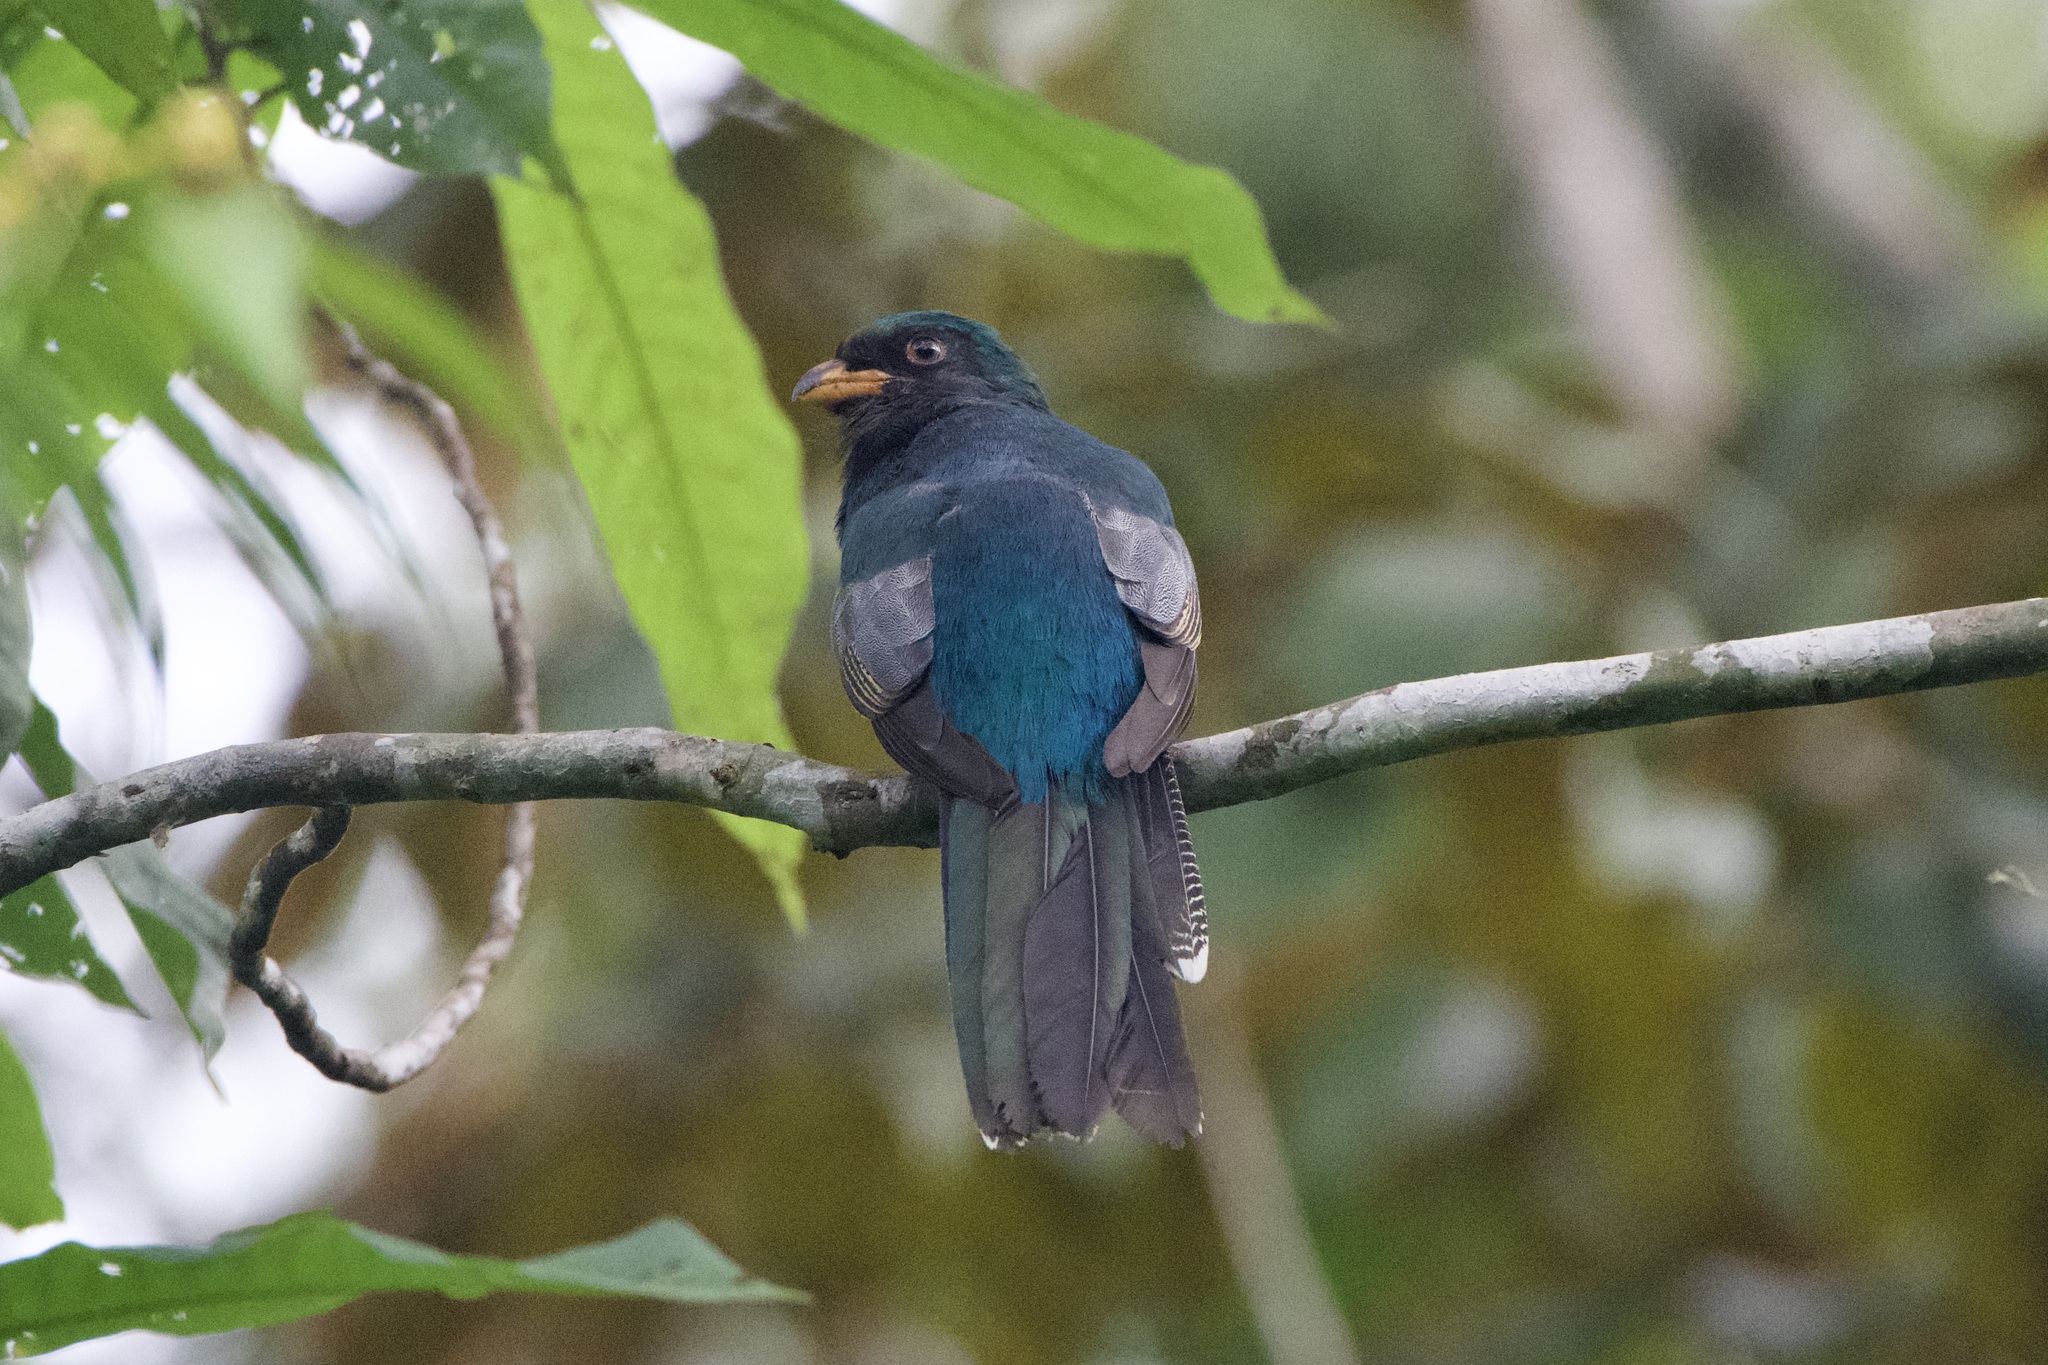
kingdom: Animalia
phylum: Chordata
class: Aves
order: Trogoniformes
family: Trogonidae
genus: Trogon
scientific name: Trogon melanurus
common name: Black-tailed trogon
